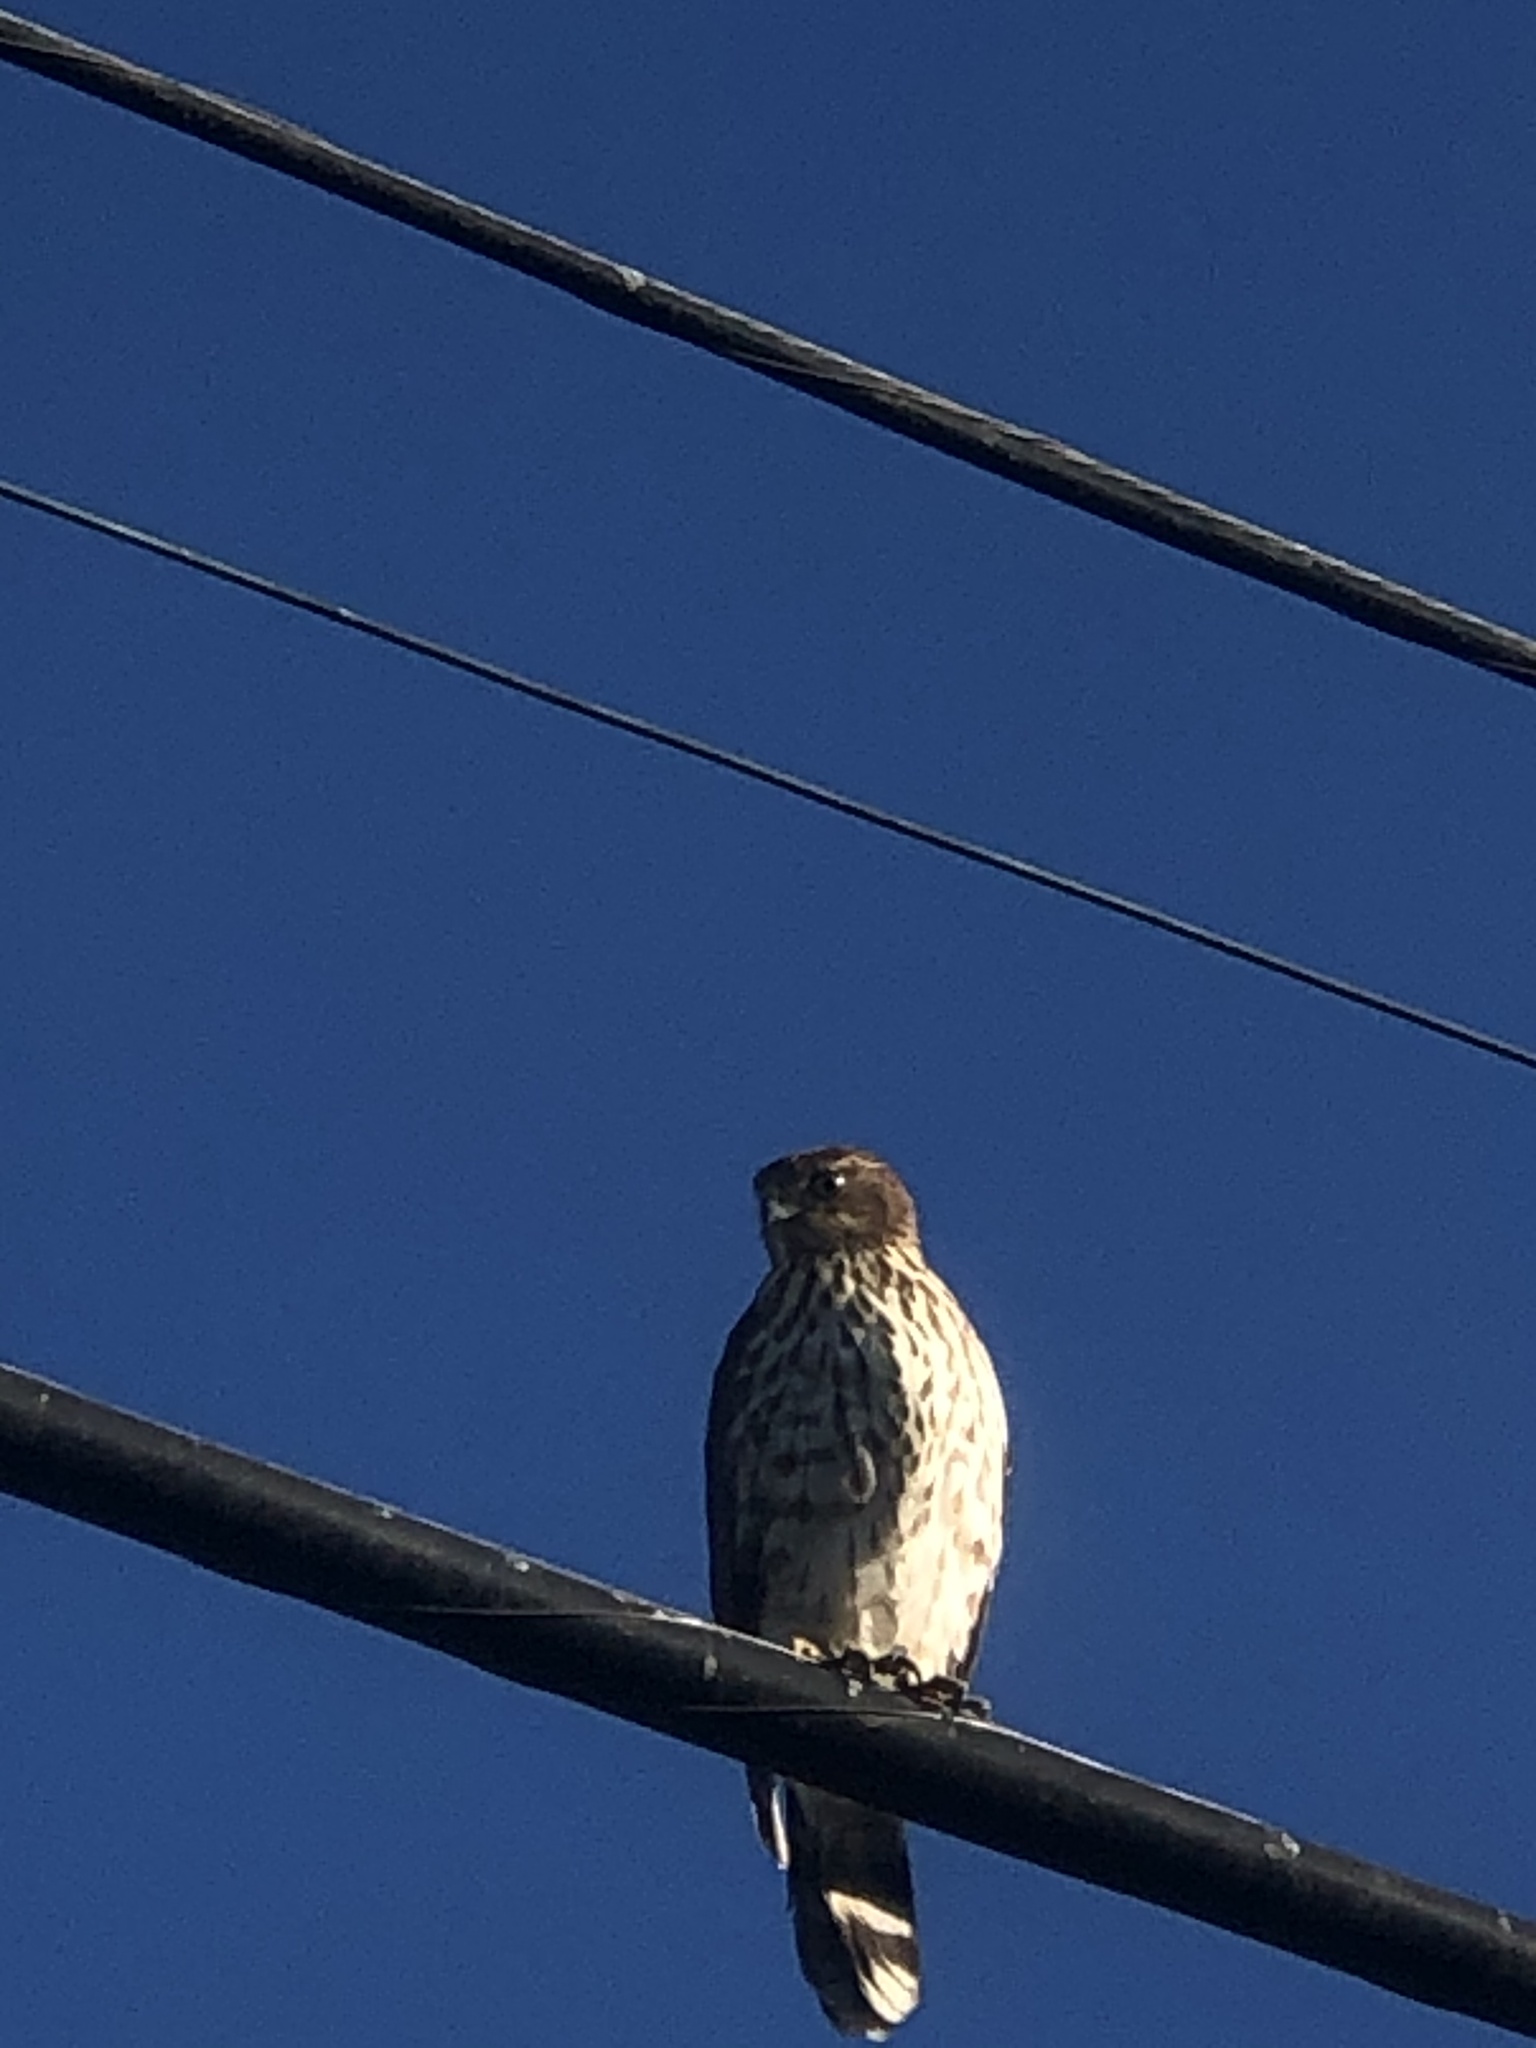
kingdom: Animalia
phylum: Chordata
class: Aves
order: Accipitriformes
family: Accipitridae
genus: Accipiter
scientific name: Accipiter cooperii
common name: Cooper's hawk
